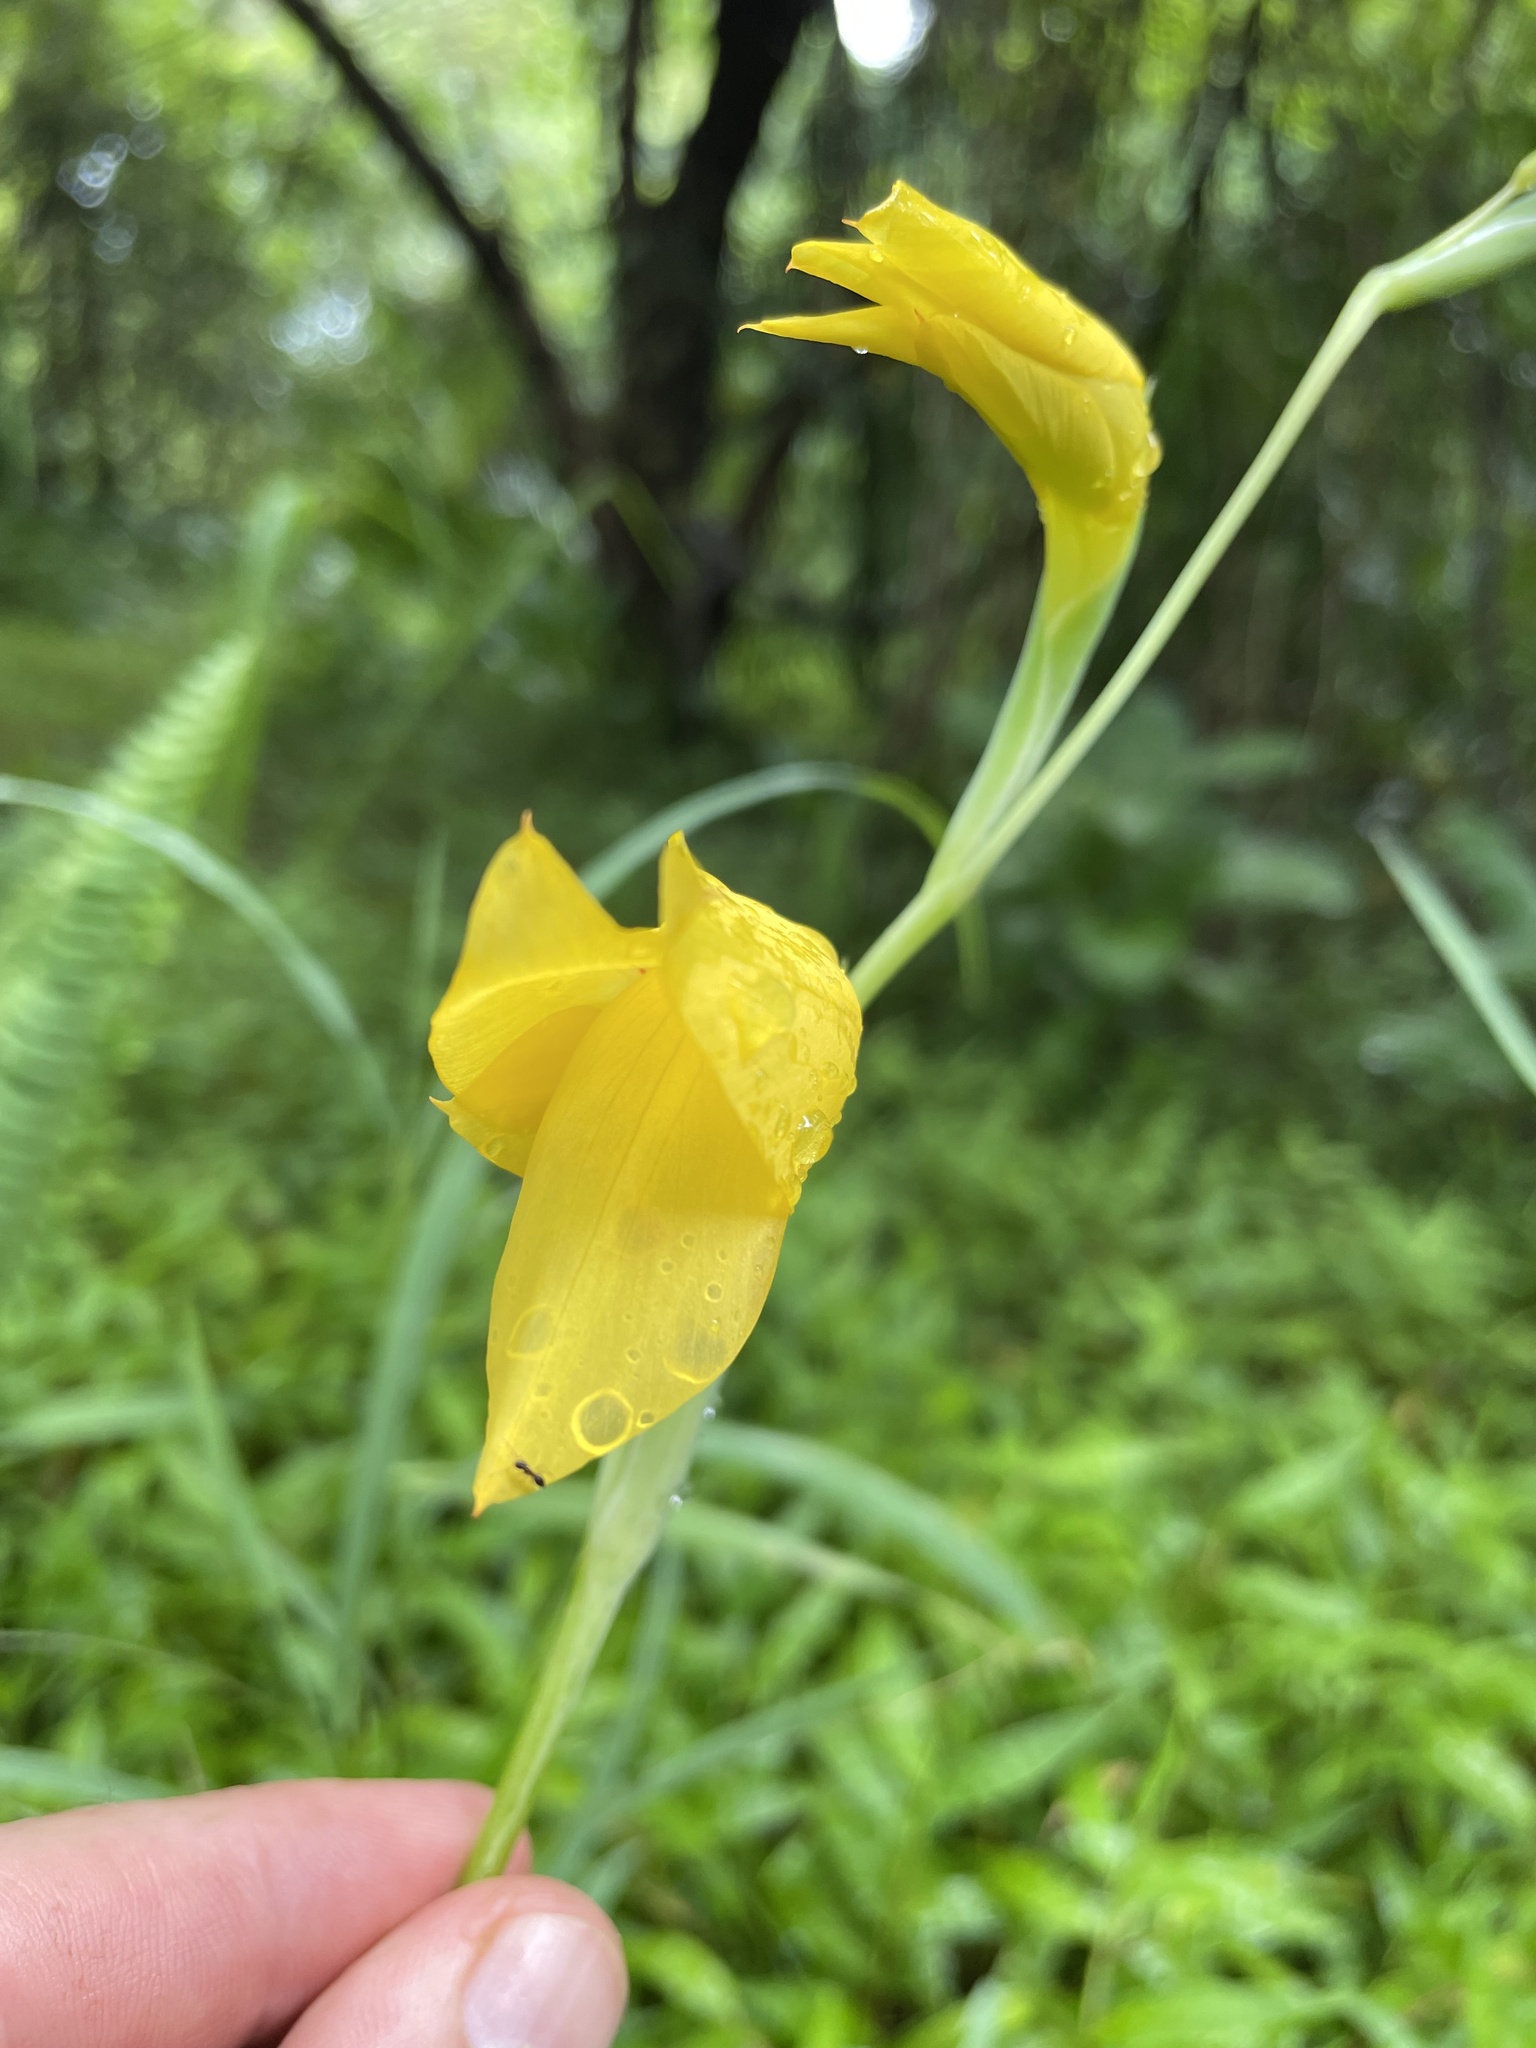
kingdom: Plantae
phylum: Tracheophyta
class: Liliopsida
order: Asparagales
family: Iridaceae
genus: Gladiolus
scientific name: Gladiolus dalenii
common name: Cornflag
